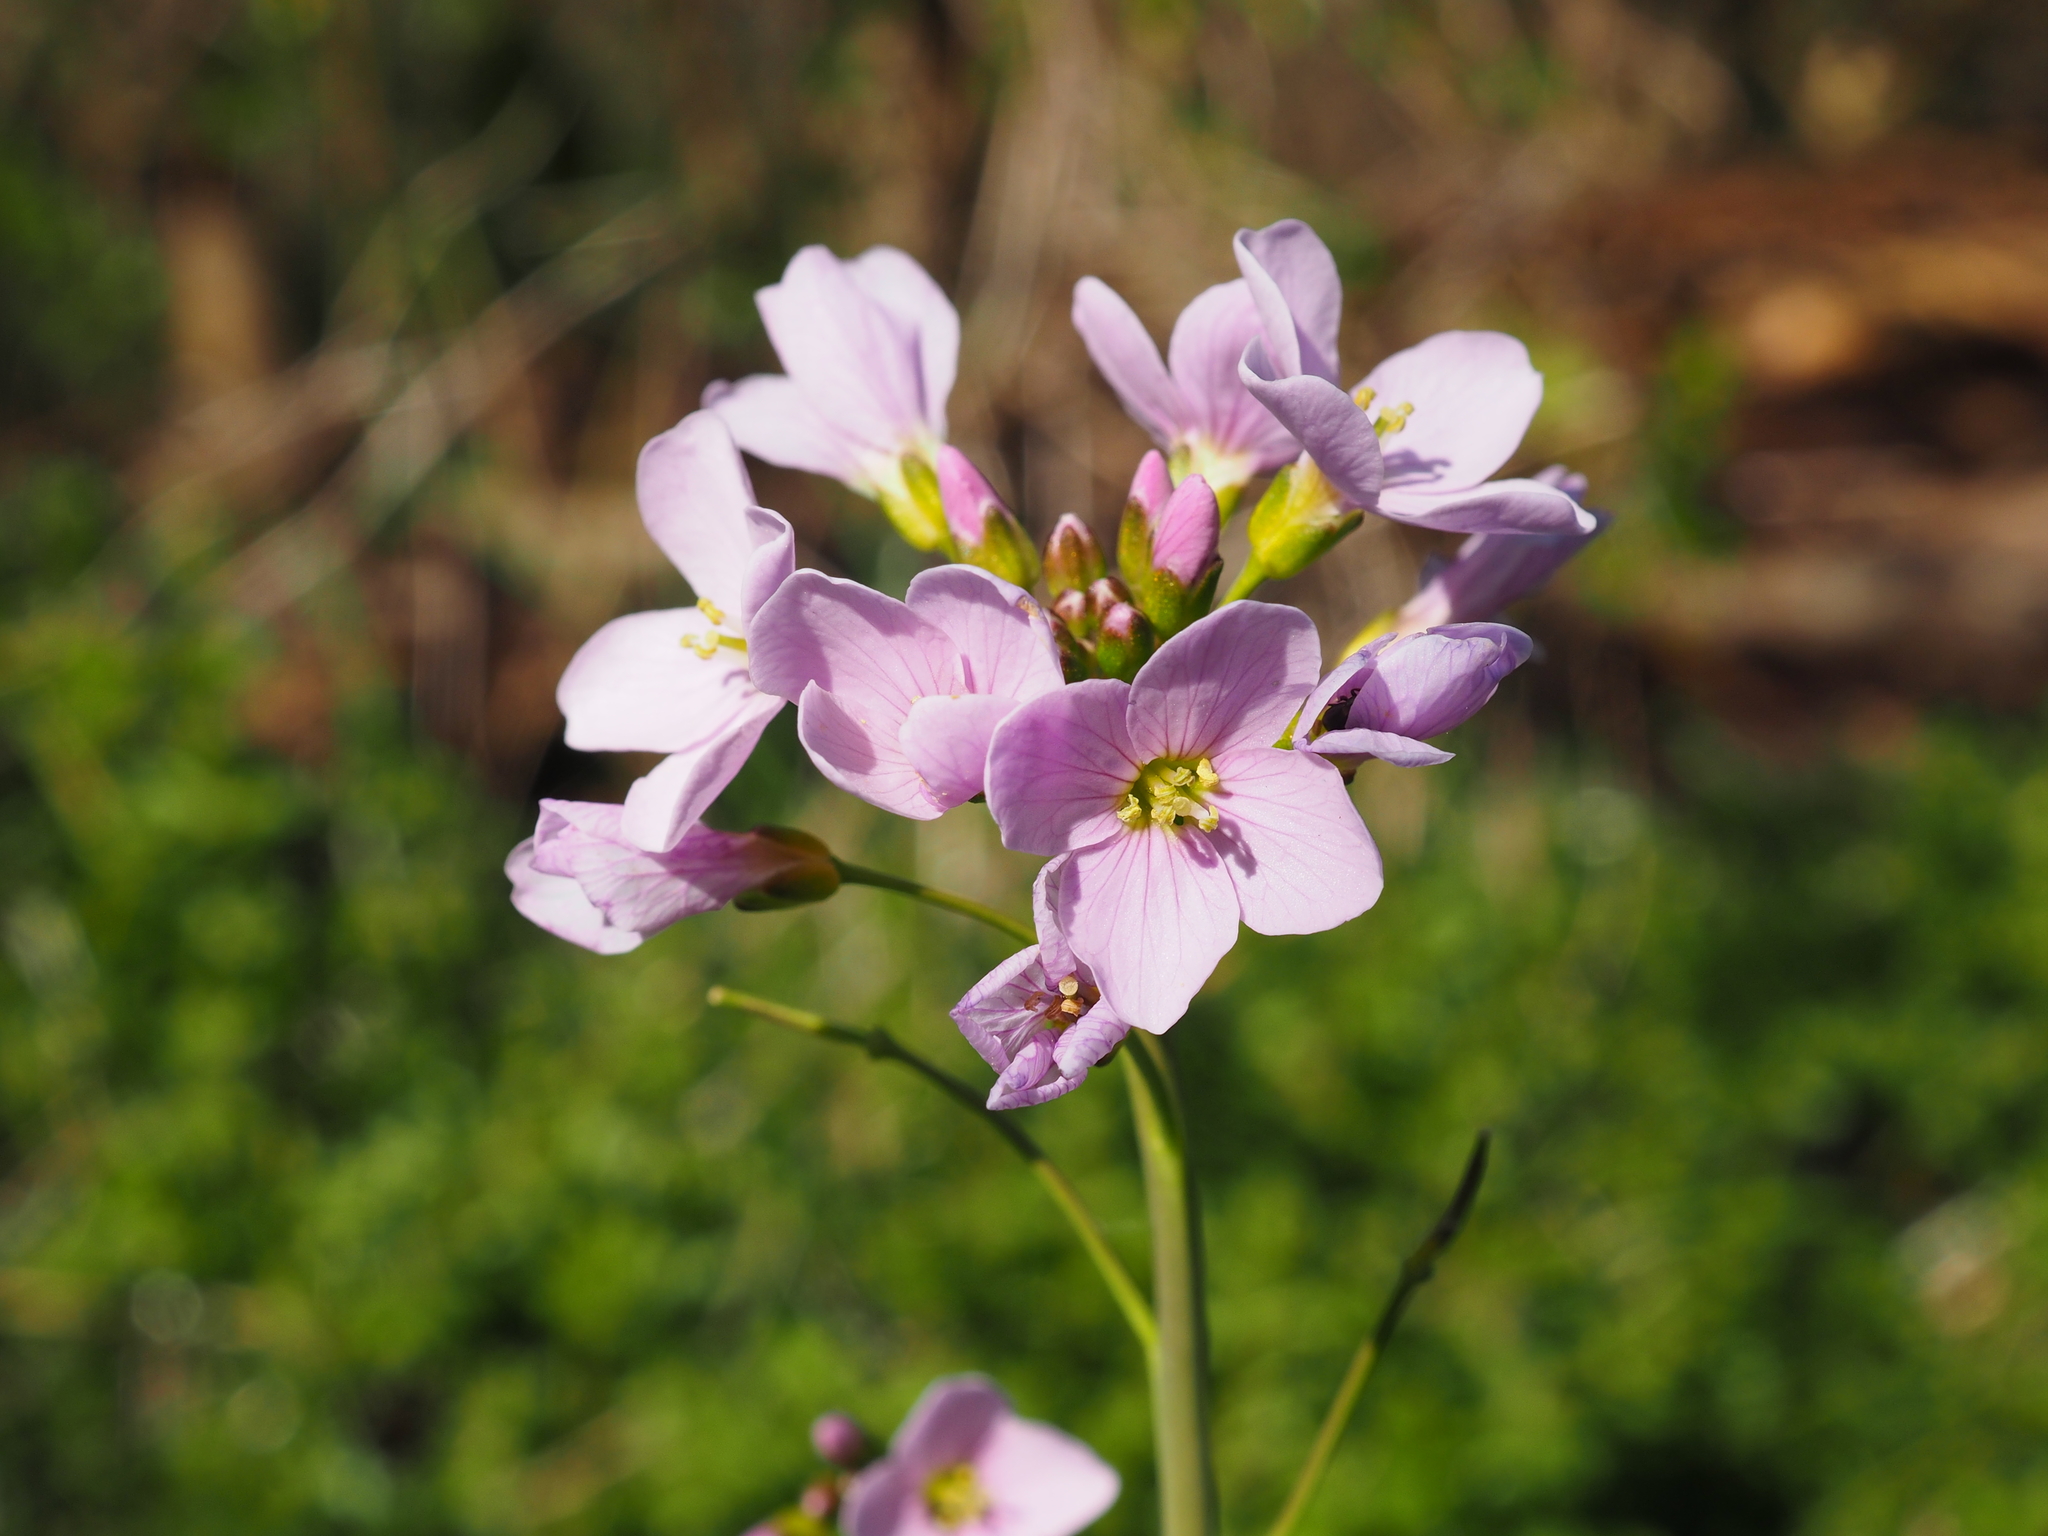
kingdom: Plantae
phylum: Tracheophyta
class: Magnoliopsida
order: Brassicales
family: Brassicaceae
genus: Cardamine
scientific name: Cardamine pratensis
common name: Cuckoo flower
